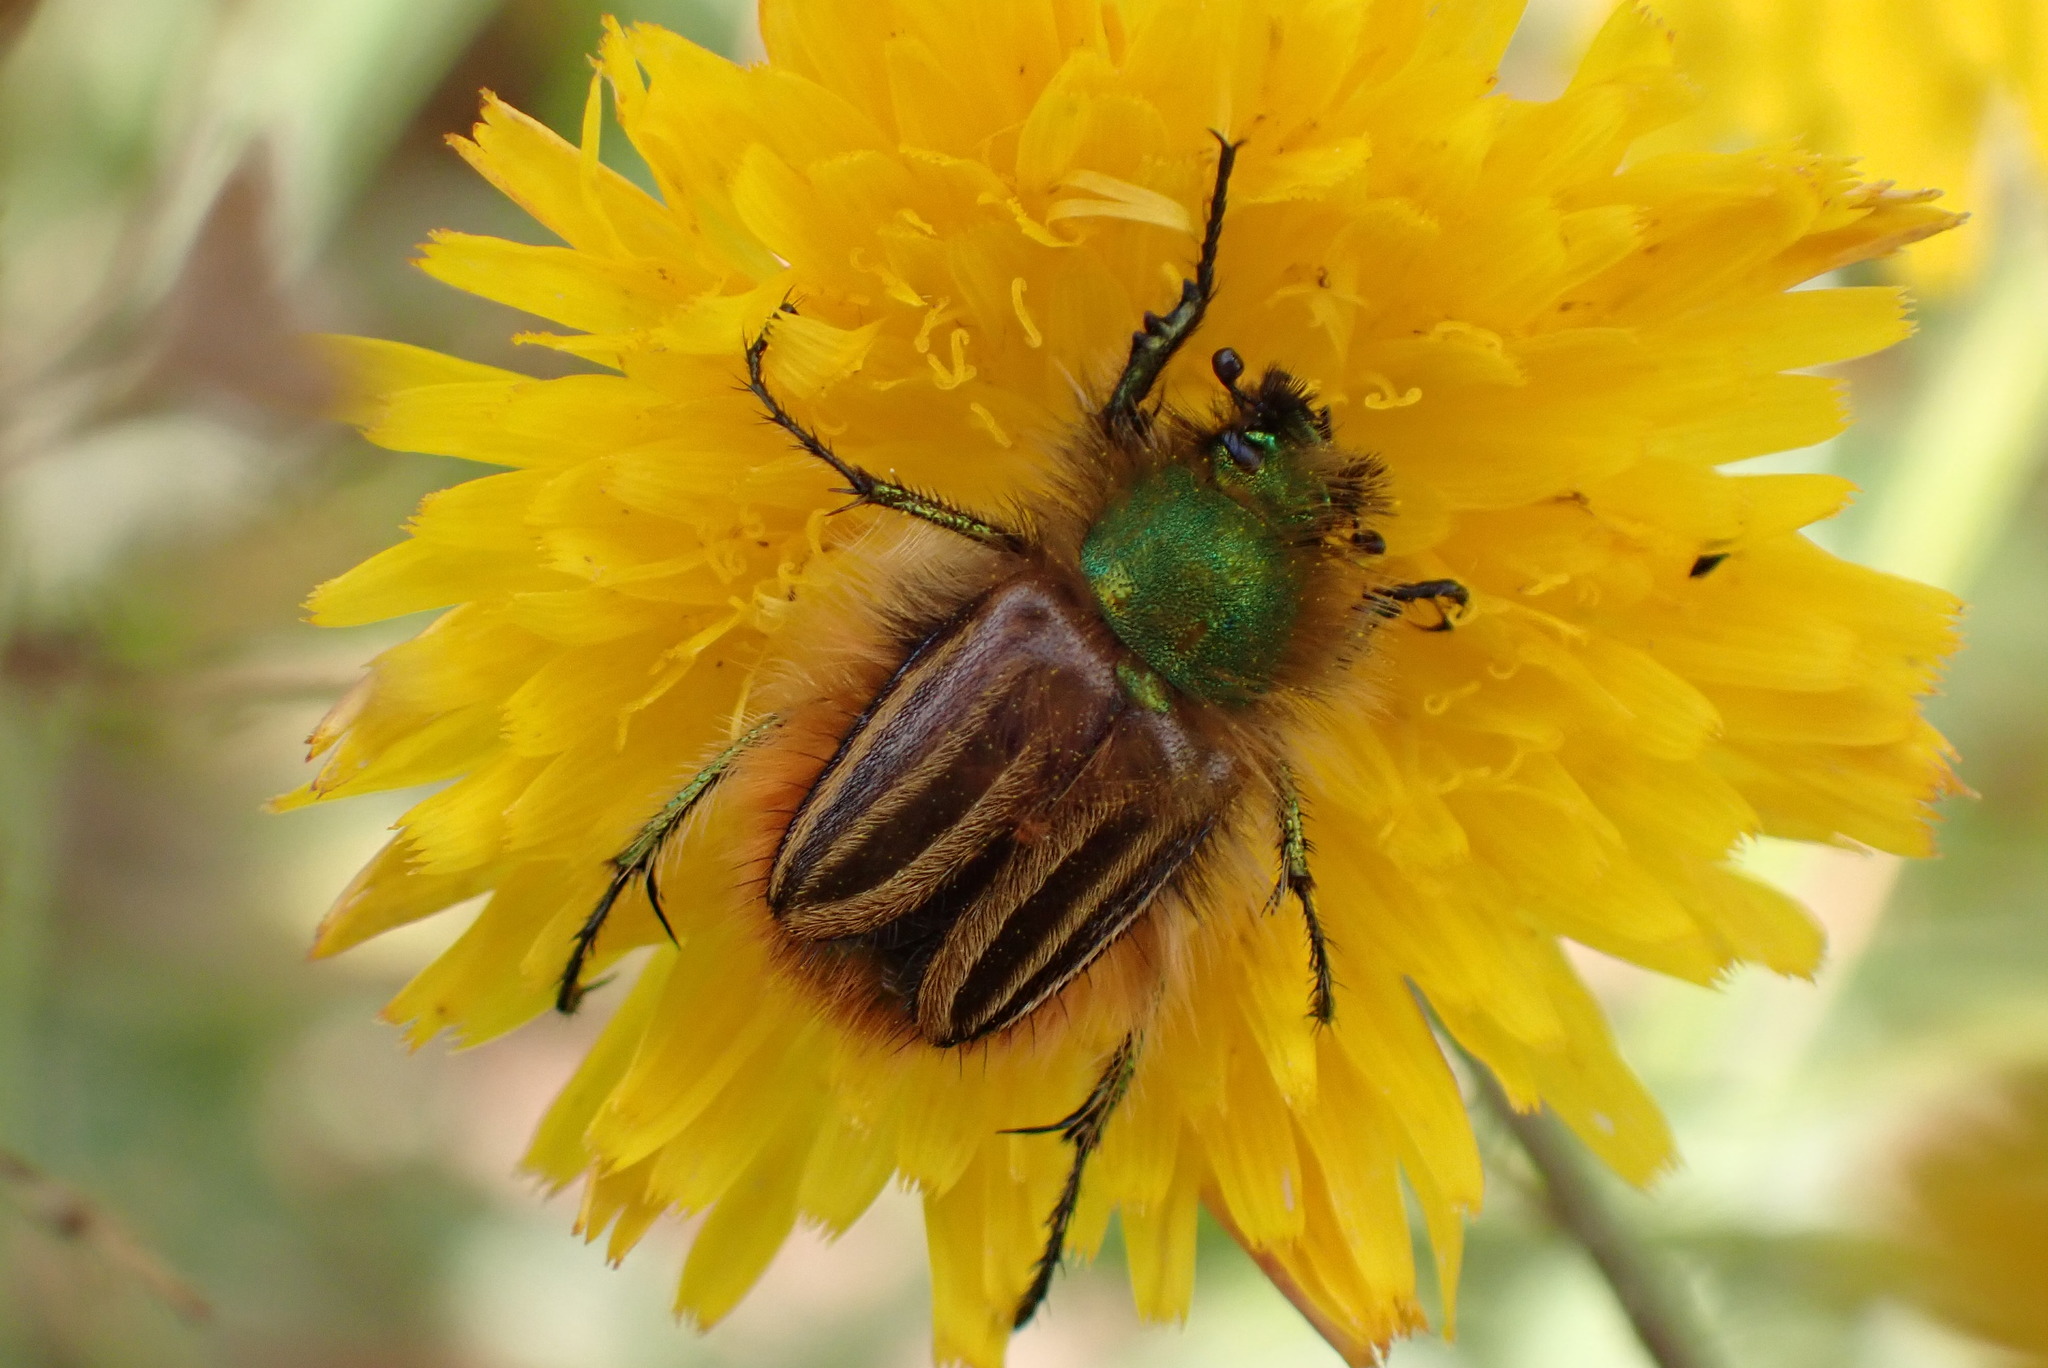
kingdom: Animalia
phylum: Arthropoda
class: Insecta
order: Coleoptera
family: Glaphyridae
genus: Eulasia
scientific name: Eulasia pareyssei
